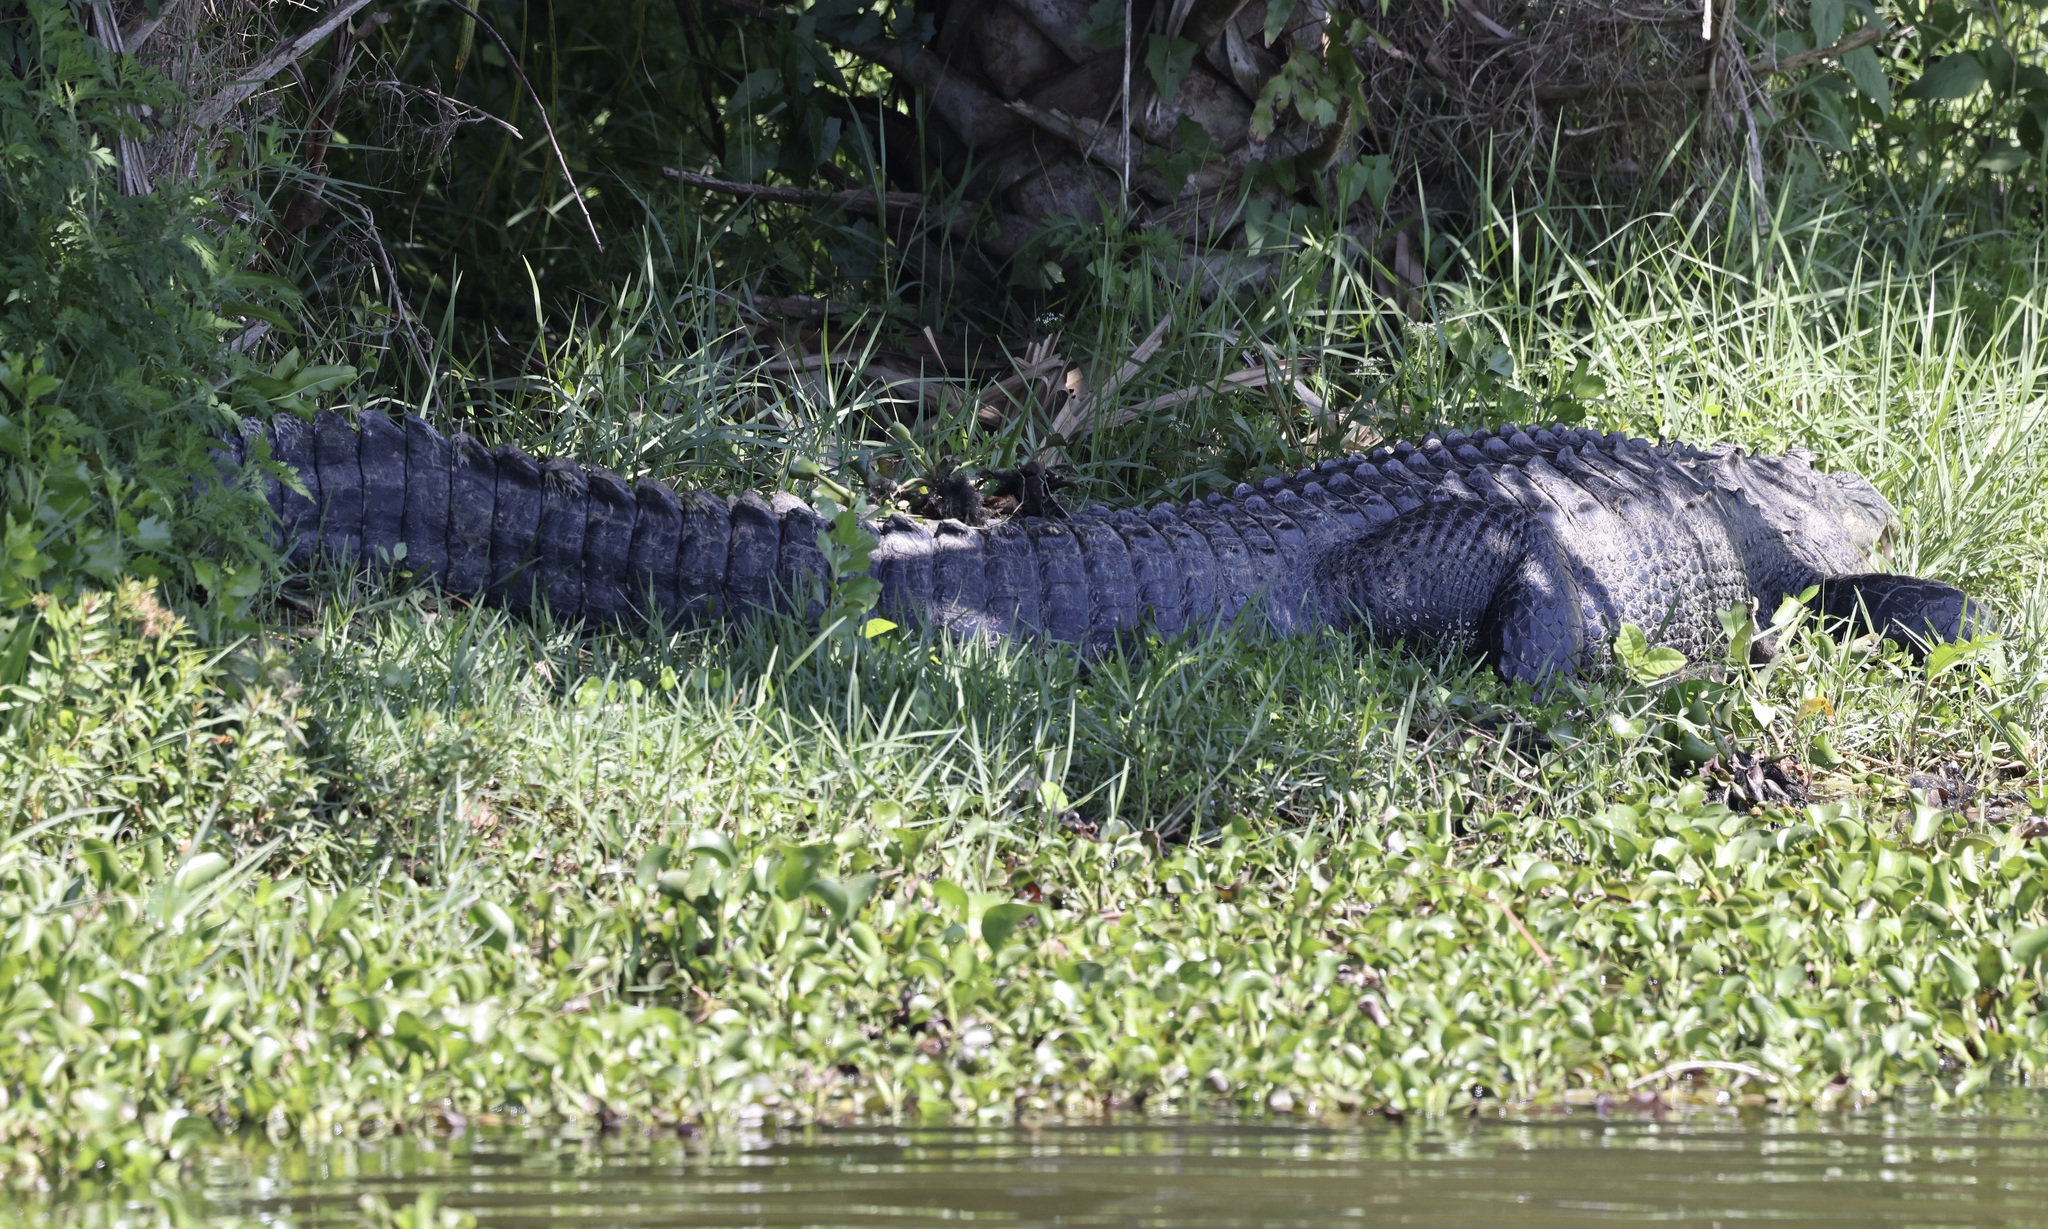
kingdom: Animalia
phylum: Chordata
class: Crocodylia
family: Alligatoridae
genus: Alligator
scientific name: Alligator mississippiensis
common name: American alligator
